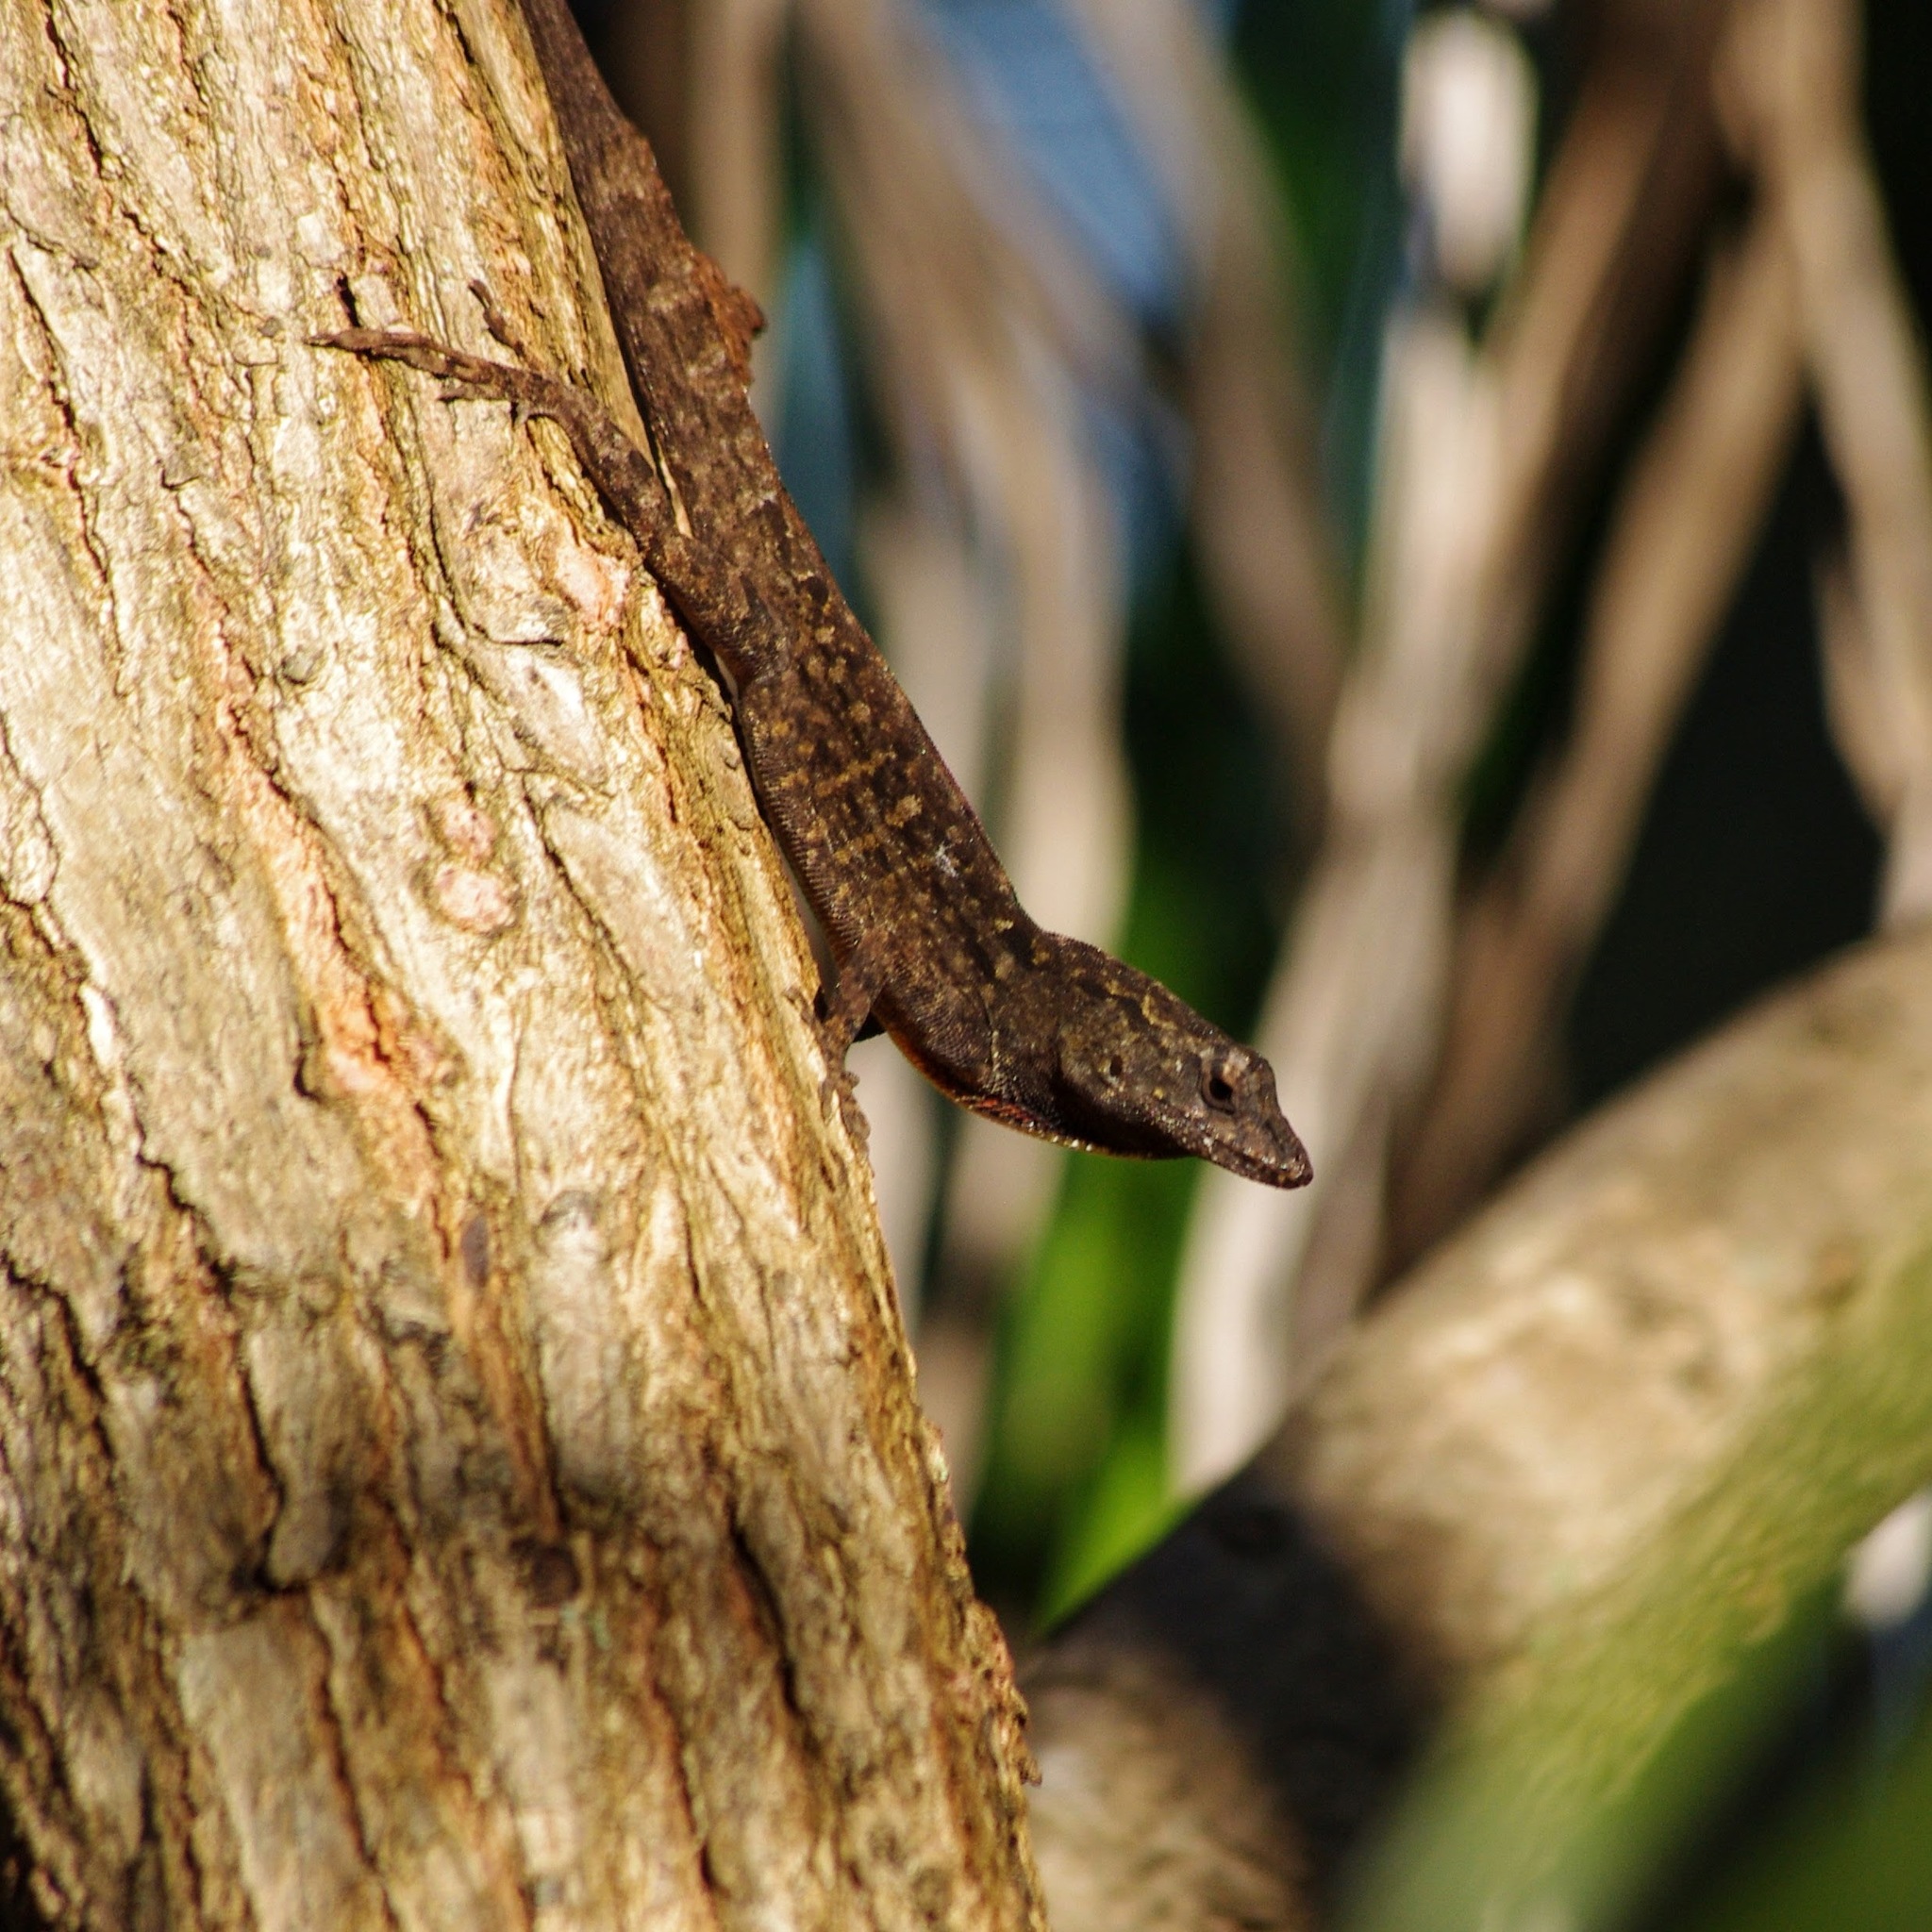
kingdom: Animalia
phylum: Chordata
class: Squamata
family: Dactyloidae
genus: Anolis
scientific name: Anolis sagrei
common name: Brown anole
